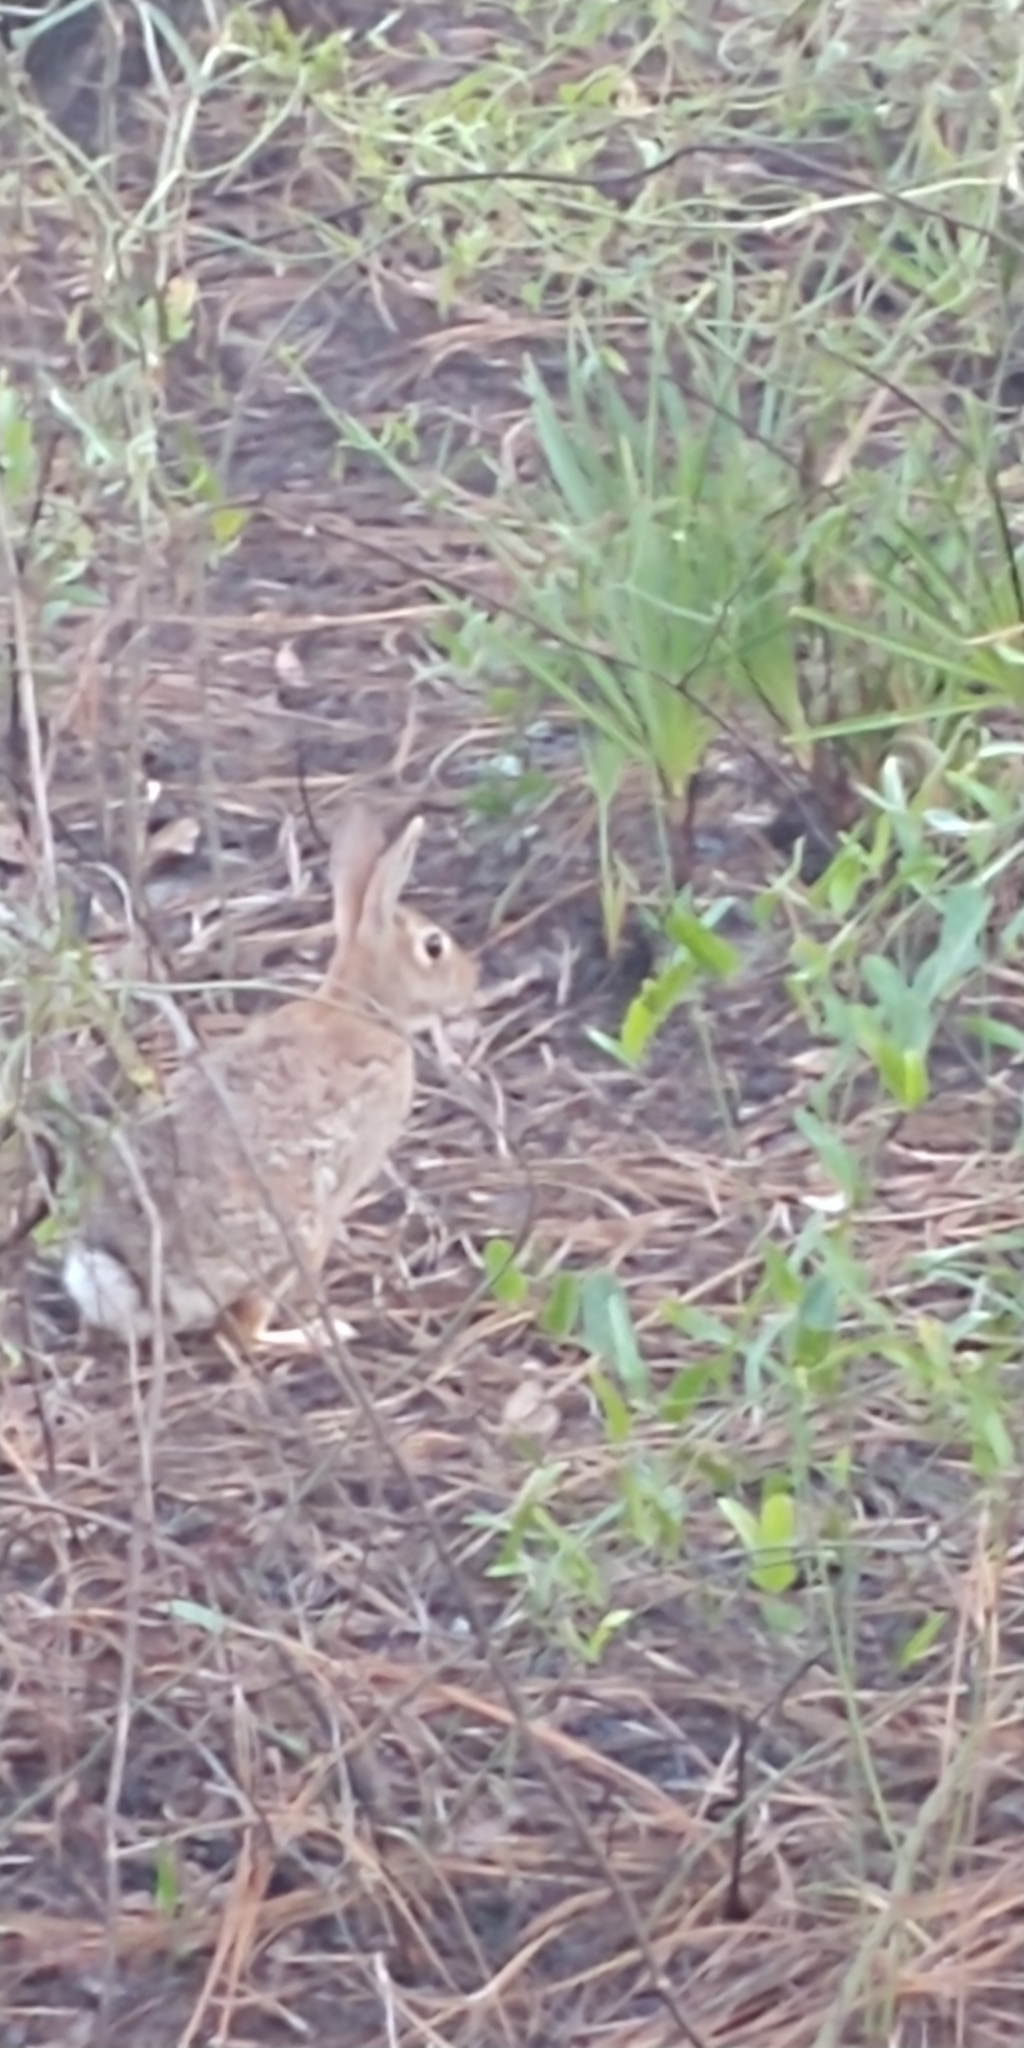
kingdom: Animalia
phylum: Chordata
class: Mammalia
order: Lagomorpha
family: Leporidae
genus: Sylvilagus
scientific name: Sylvilagus floridanus
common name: Eastern cottontail
